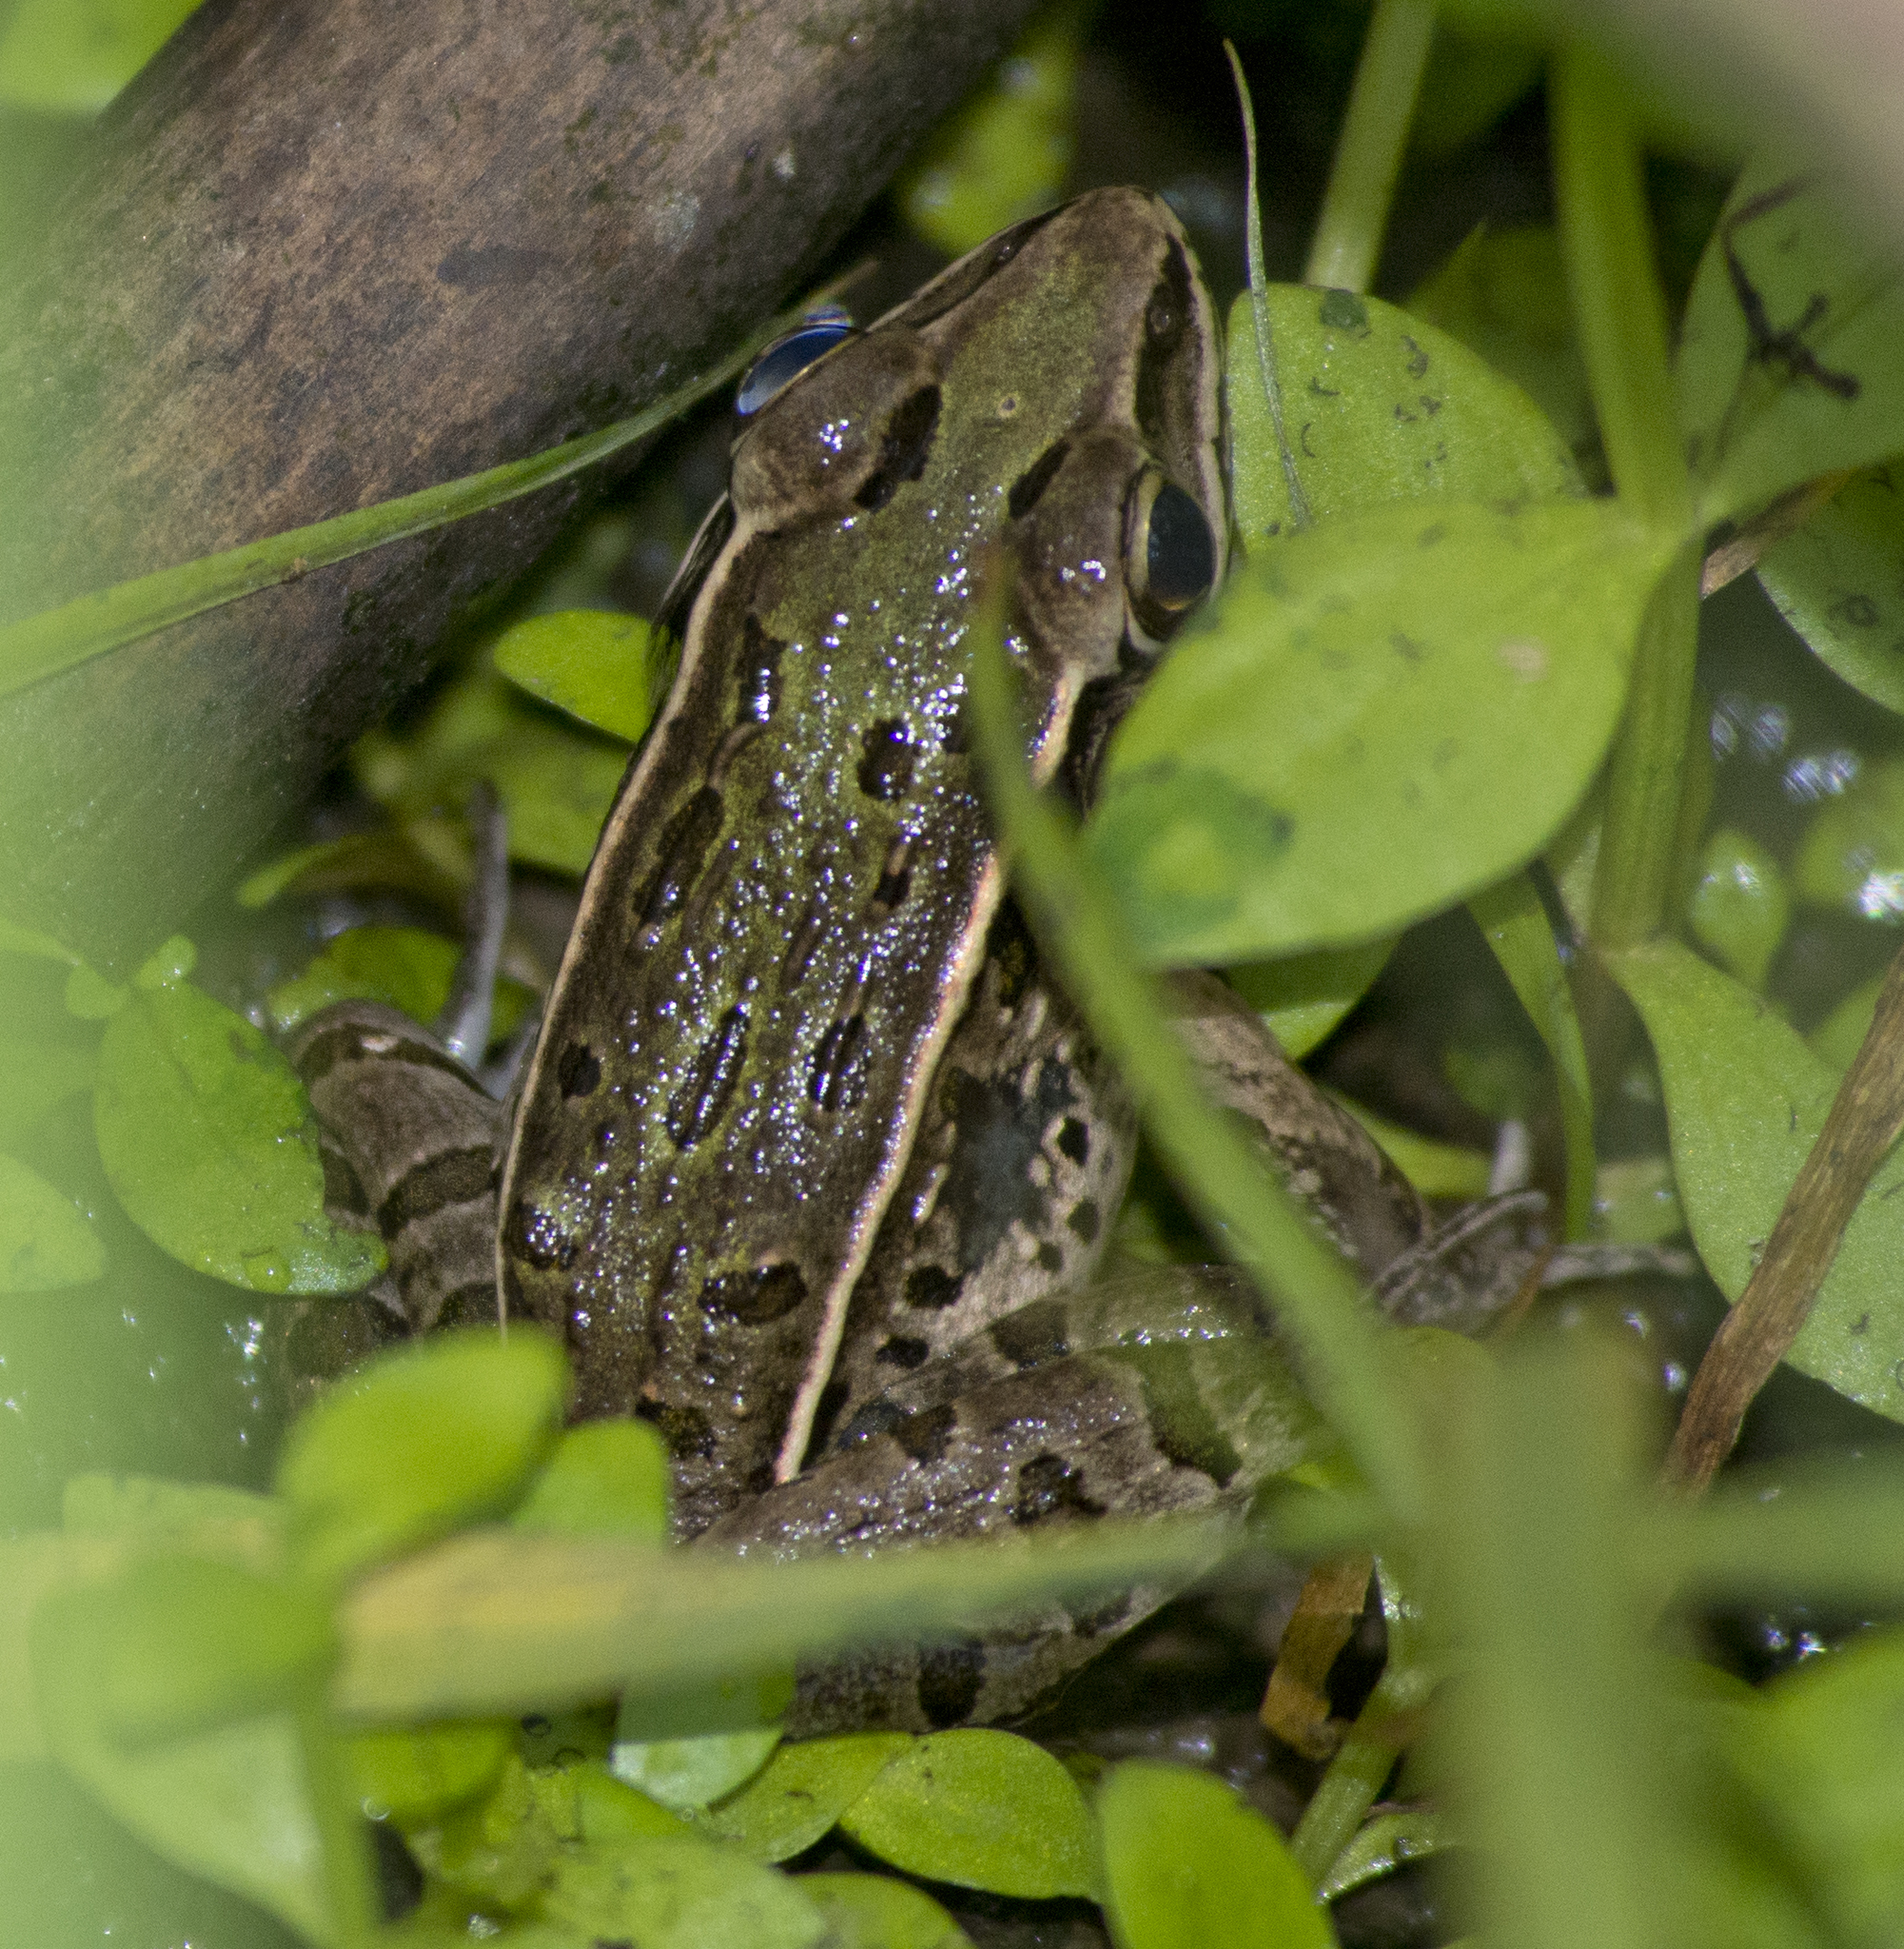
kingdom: Animalia
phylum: Chordata
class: Amphibia
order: Anura
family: Ranidae
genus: Lithobates
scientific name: Lithobates sphenocephalus
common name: Southern leopard frog
